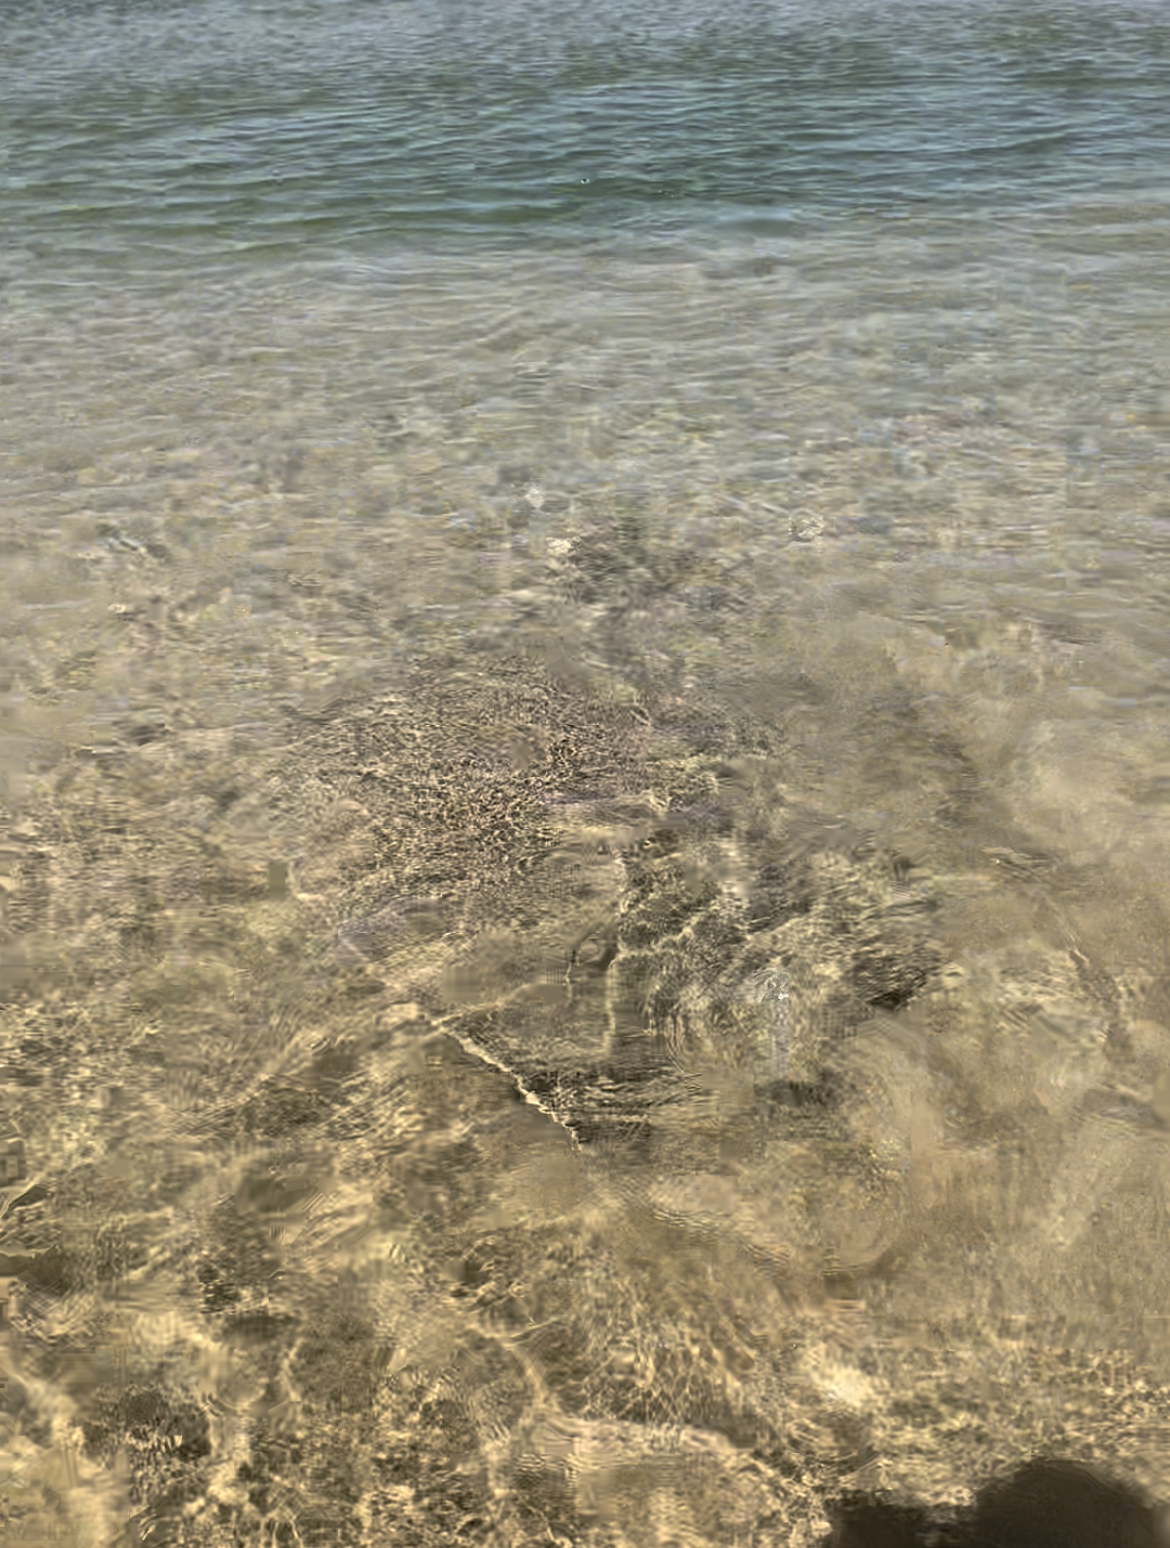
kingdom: Animalia
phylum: Chordata
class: Elasmobranchii
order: Myliobatiformes
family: Gymnuridae
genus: Gymnura
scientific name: Gymnura natalensis
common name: Backwater butterfly ray
